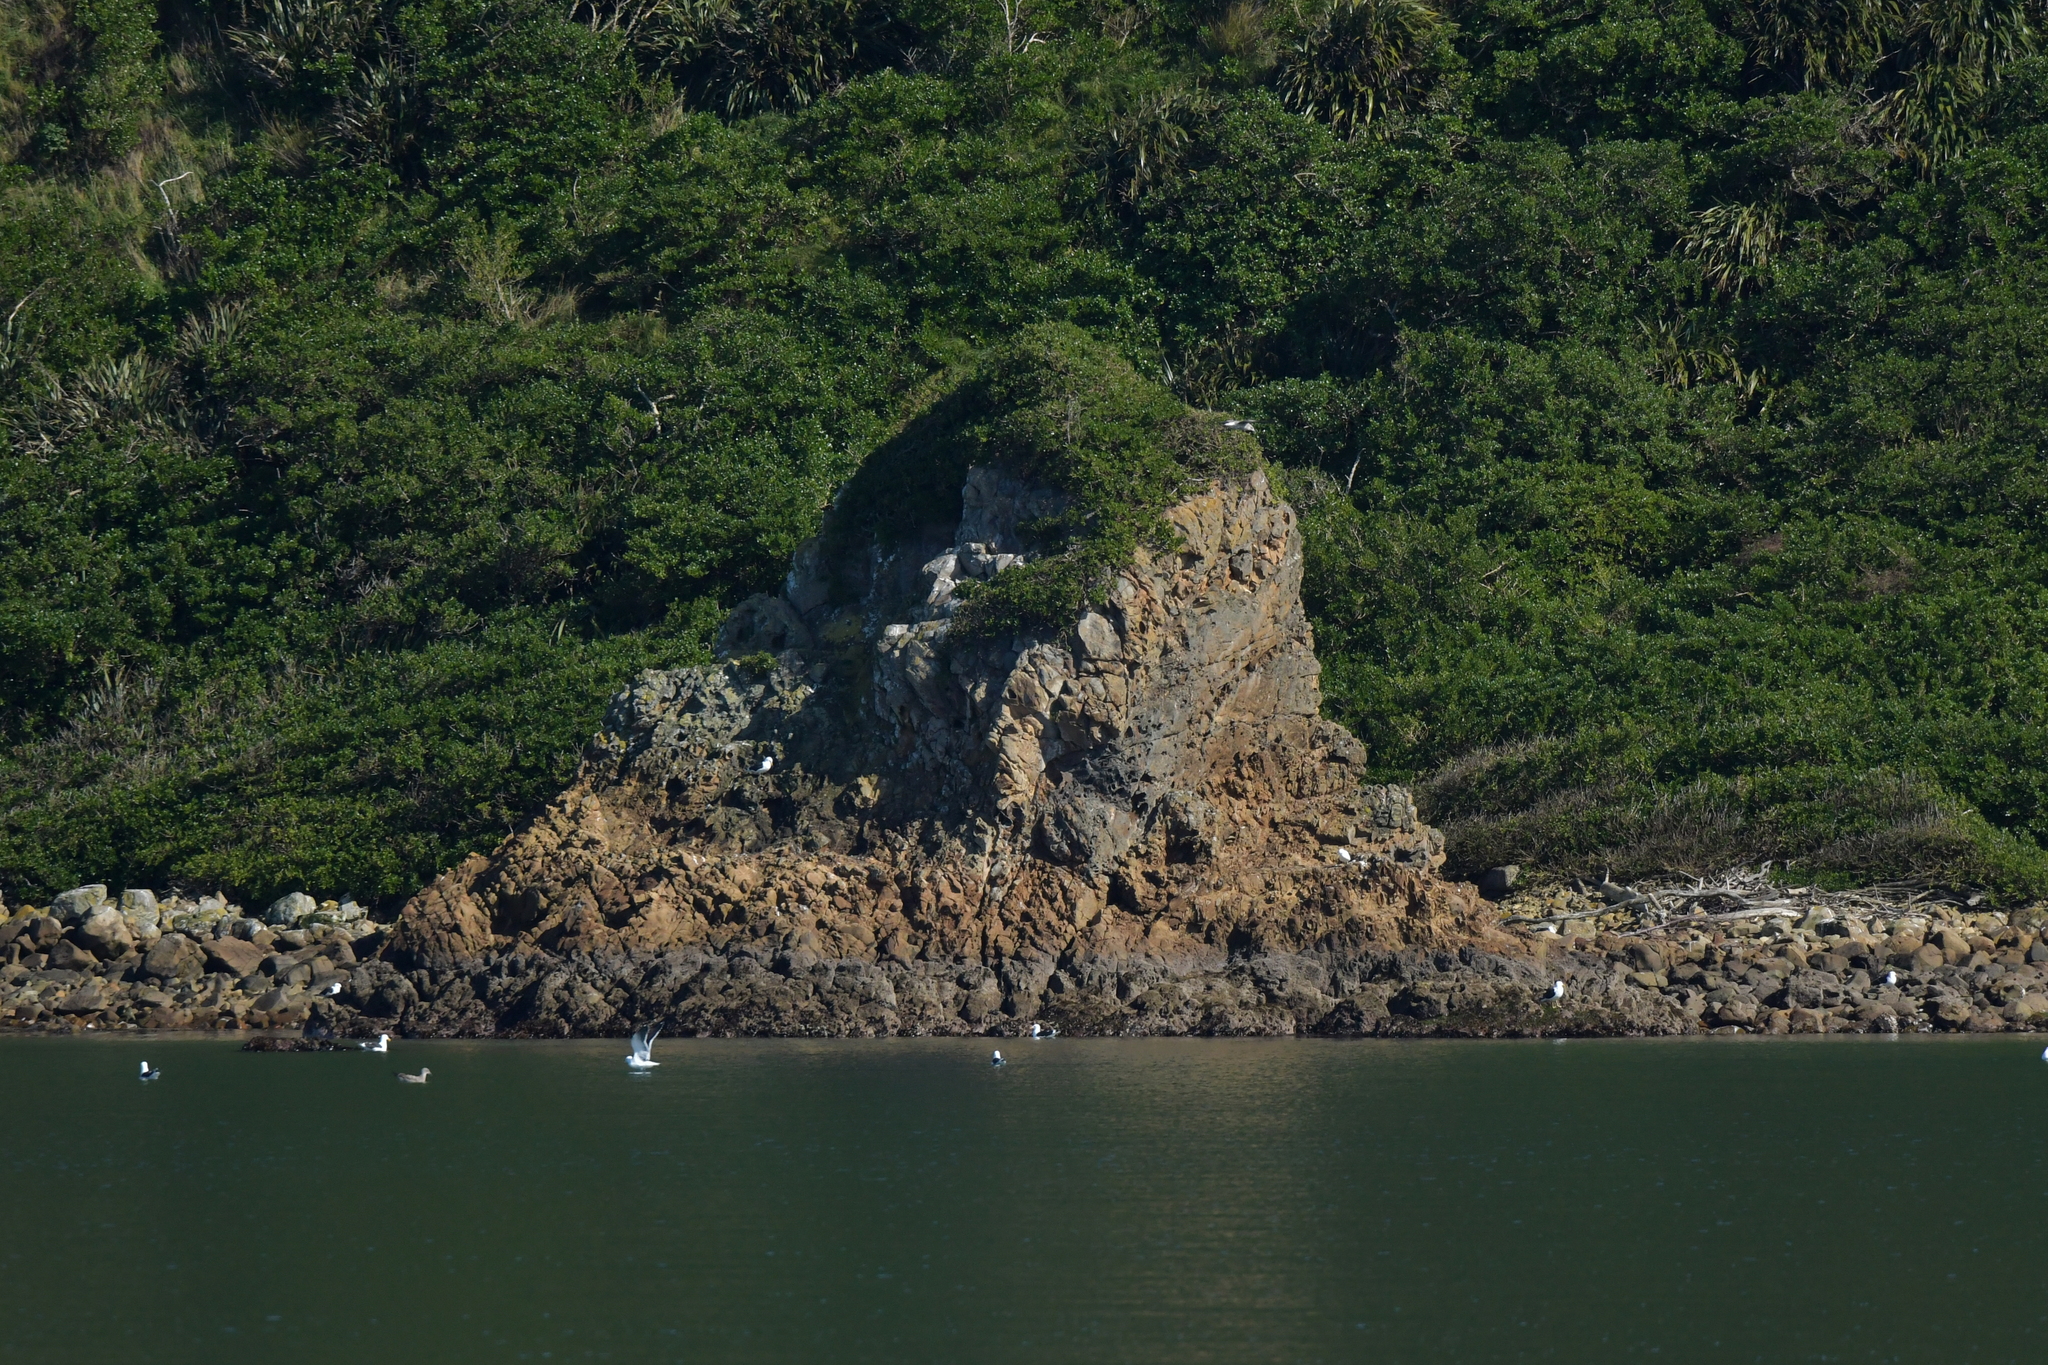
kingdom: Animalia
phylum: Chordata
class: Aves
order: Charadriiformes
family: Laridae
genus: Larus
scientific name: Larus dominicanus
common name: Kelp gull
